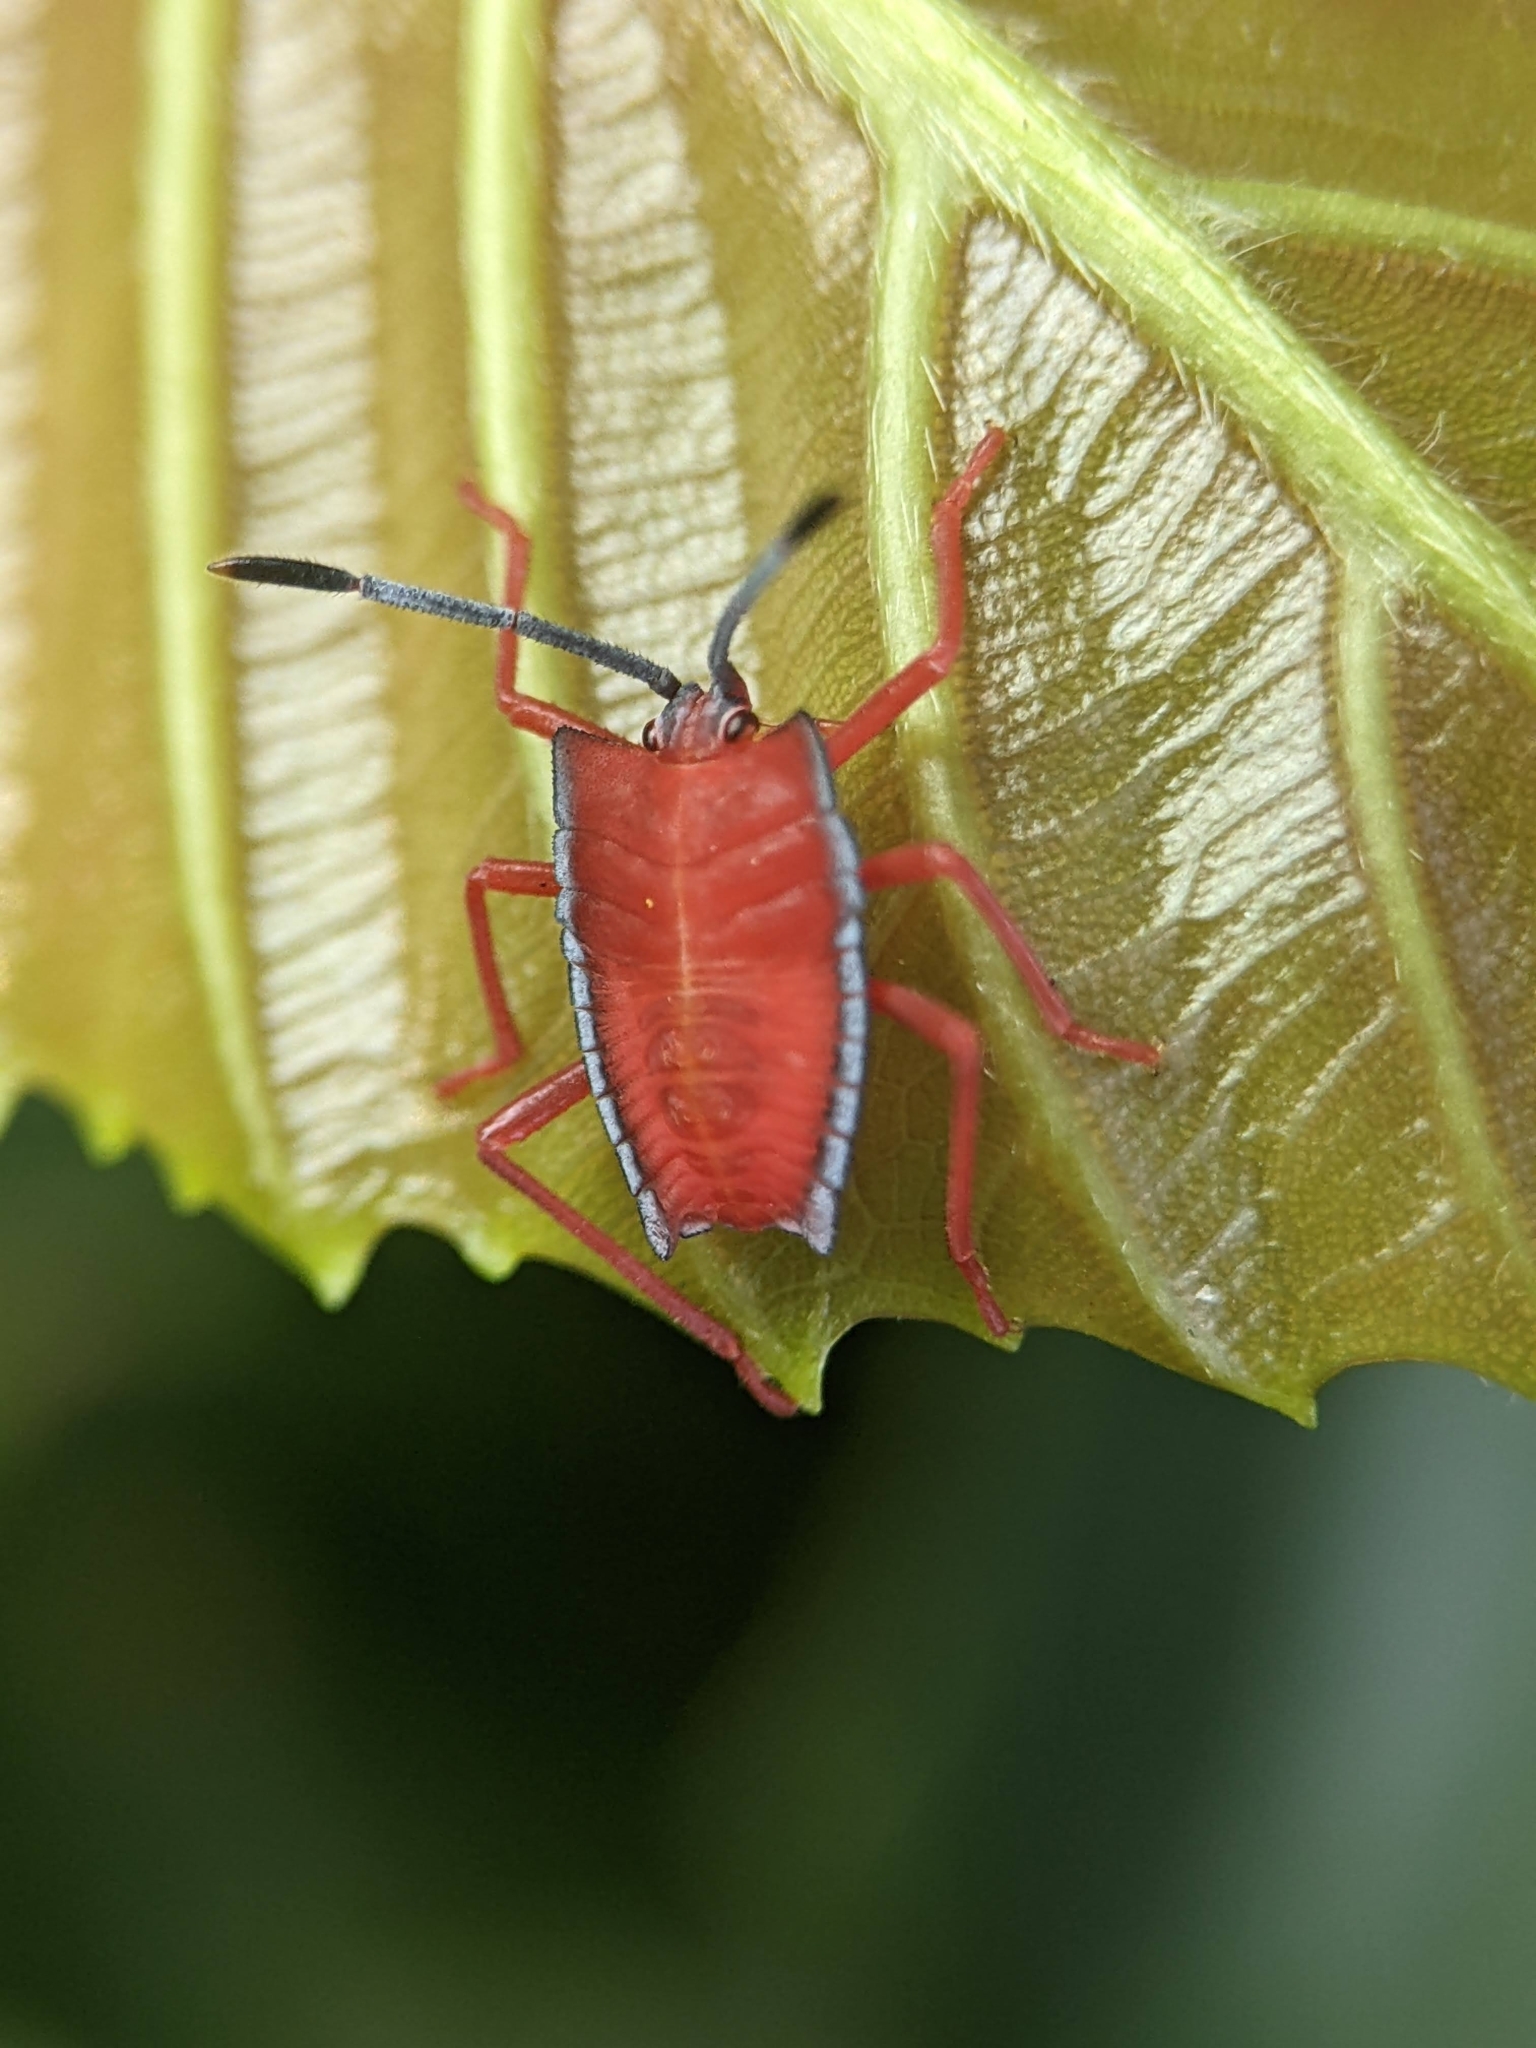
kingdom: Animalia
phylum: Arthropoda
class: Insecta
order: Hemiptera
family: Tessaratomidae
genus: Pycanum
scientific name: Pycanum alternatum
